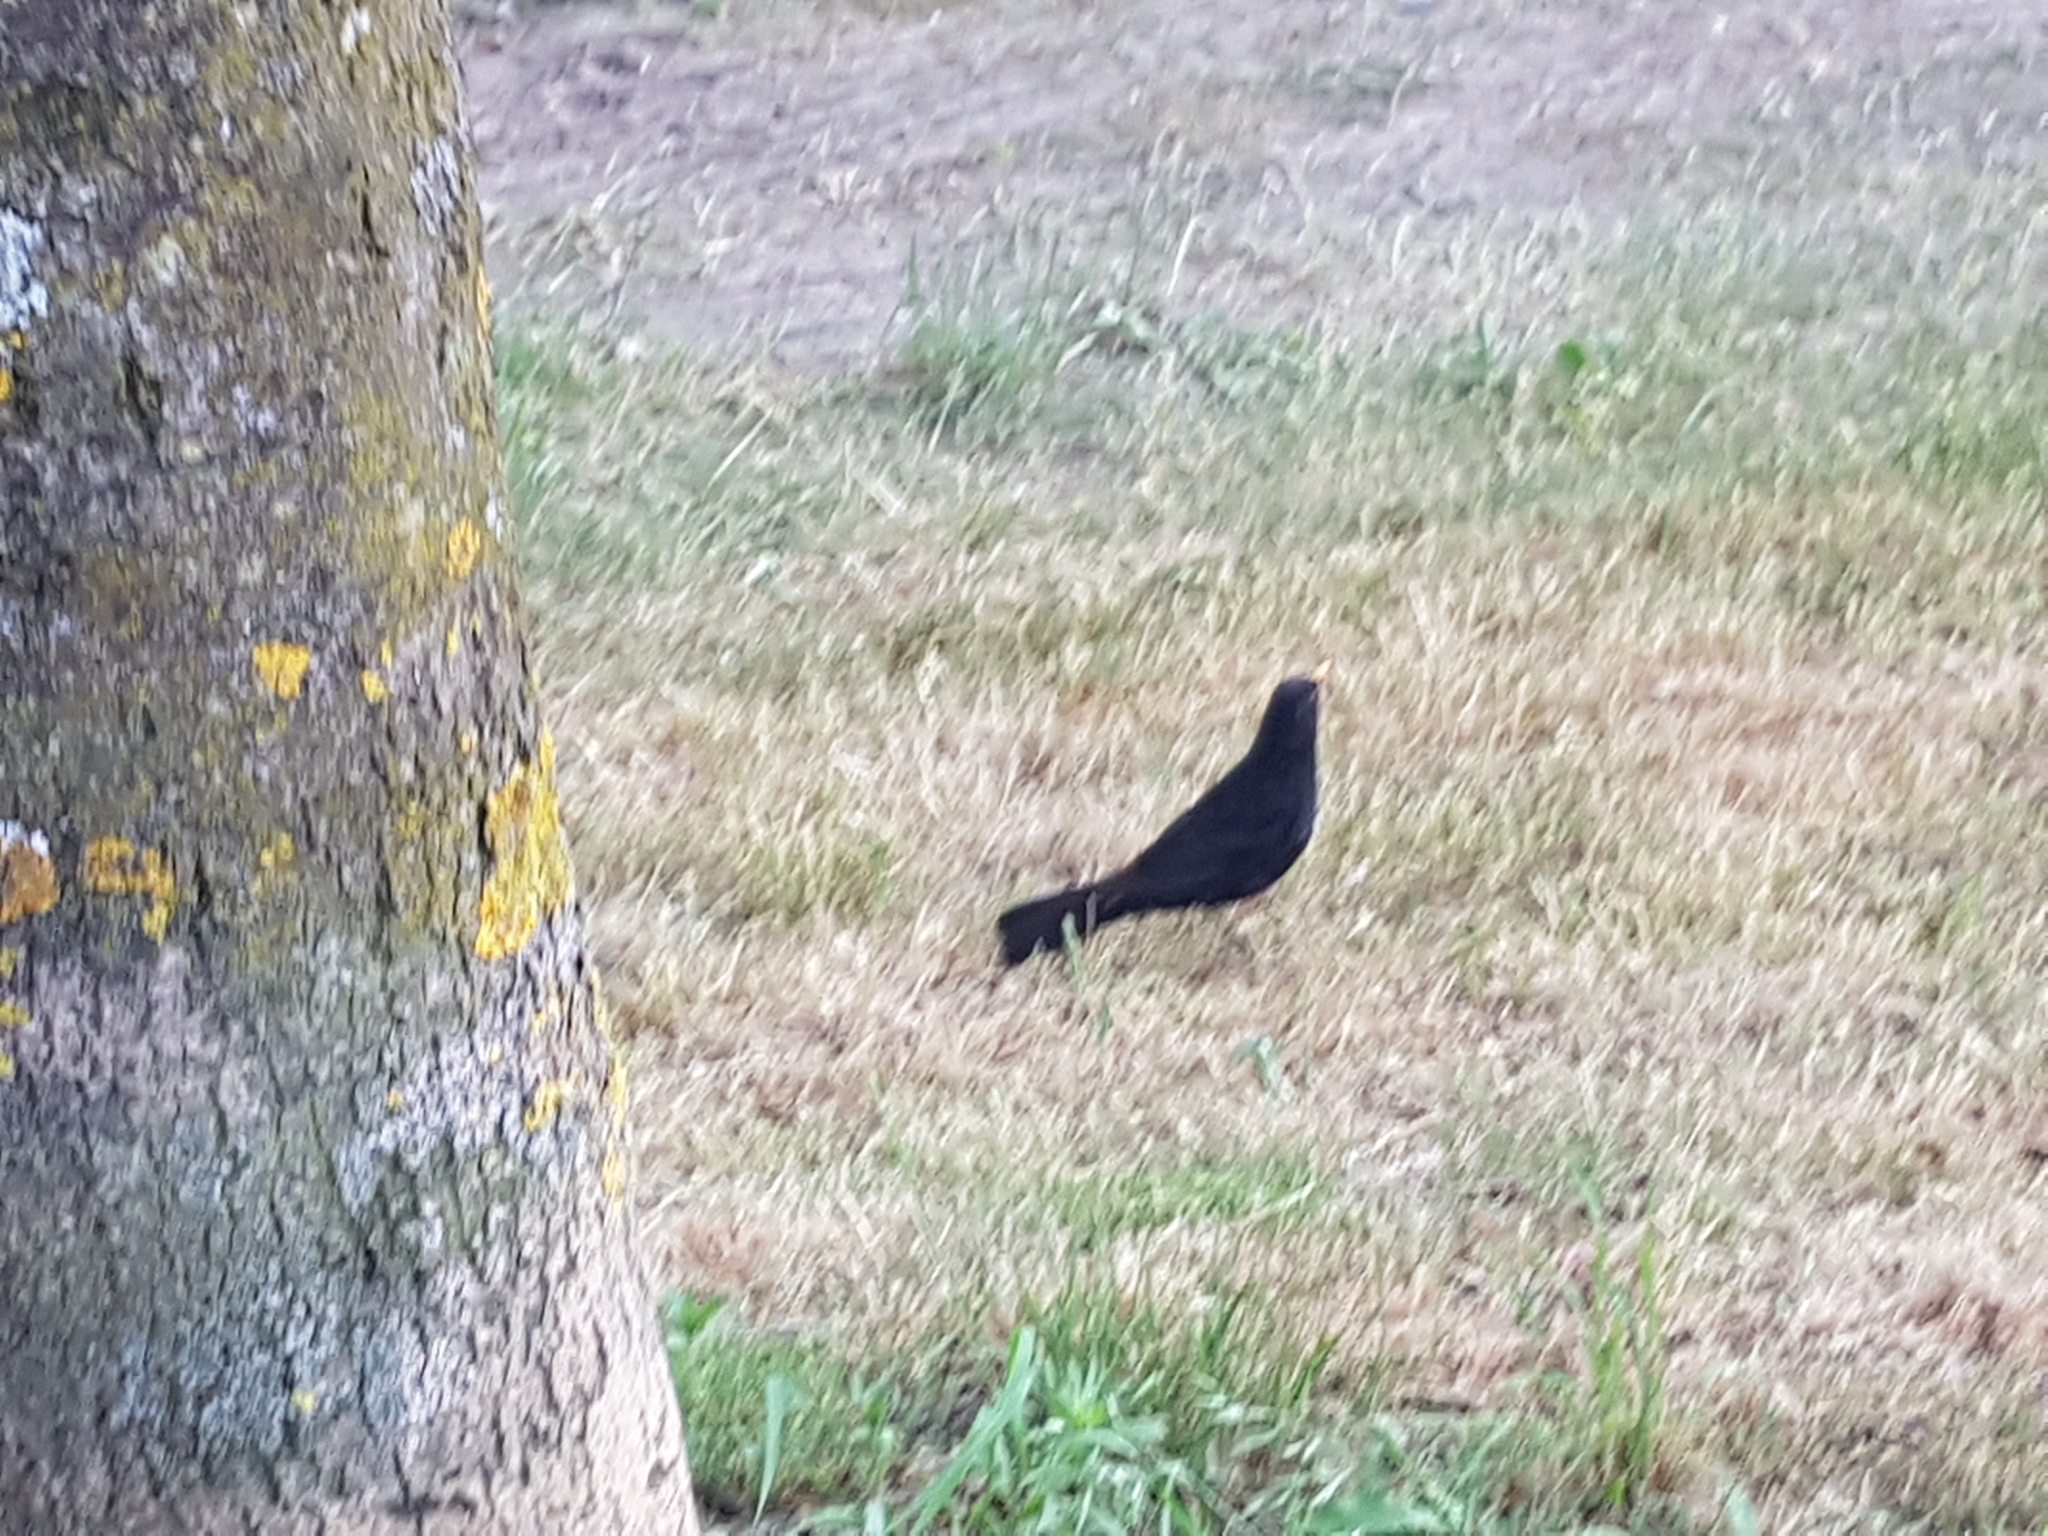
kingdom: Animalia
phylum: Chordata
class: Aves
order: Passeriformes
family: Turdidae
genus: Turdus
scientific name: Turdus merula
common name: Common blackbird
